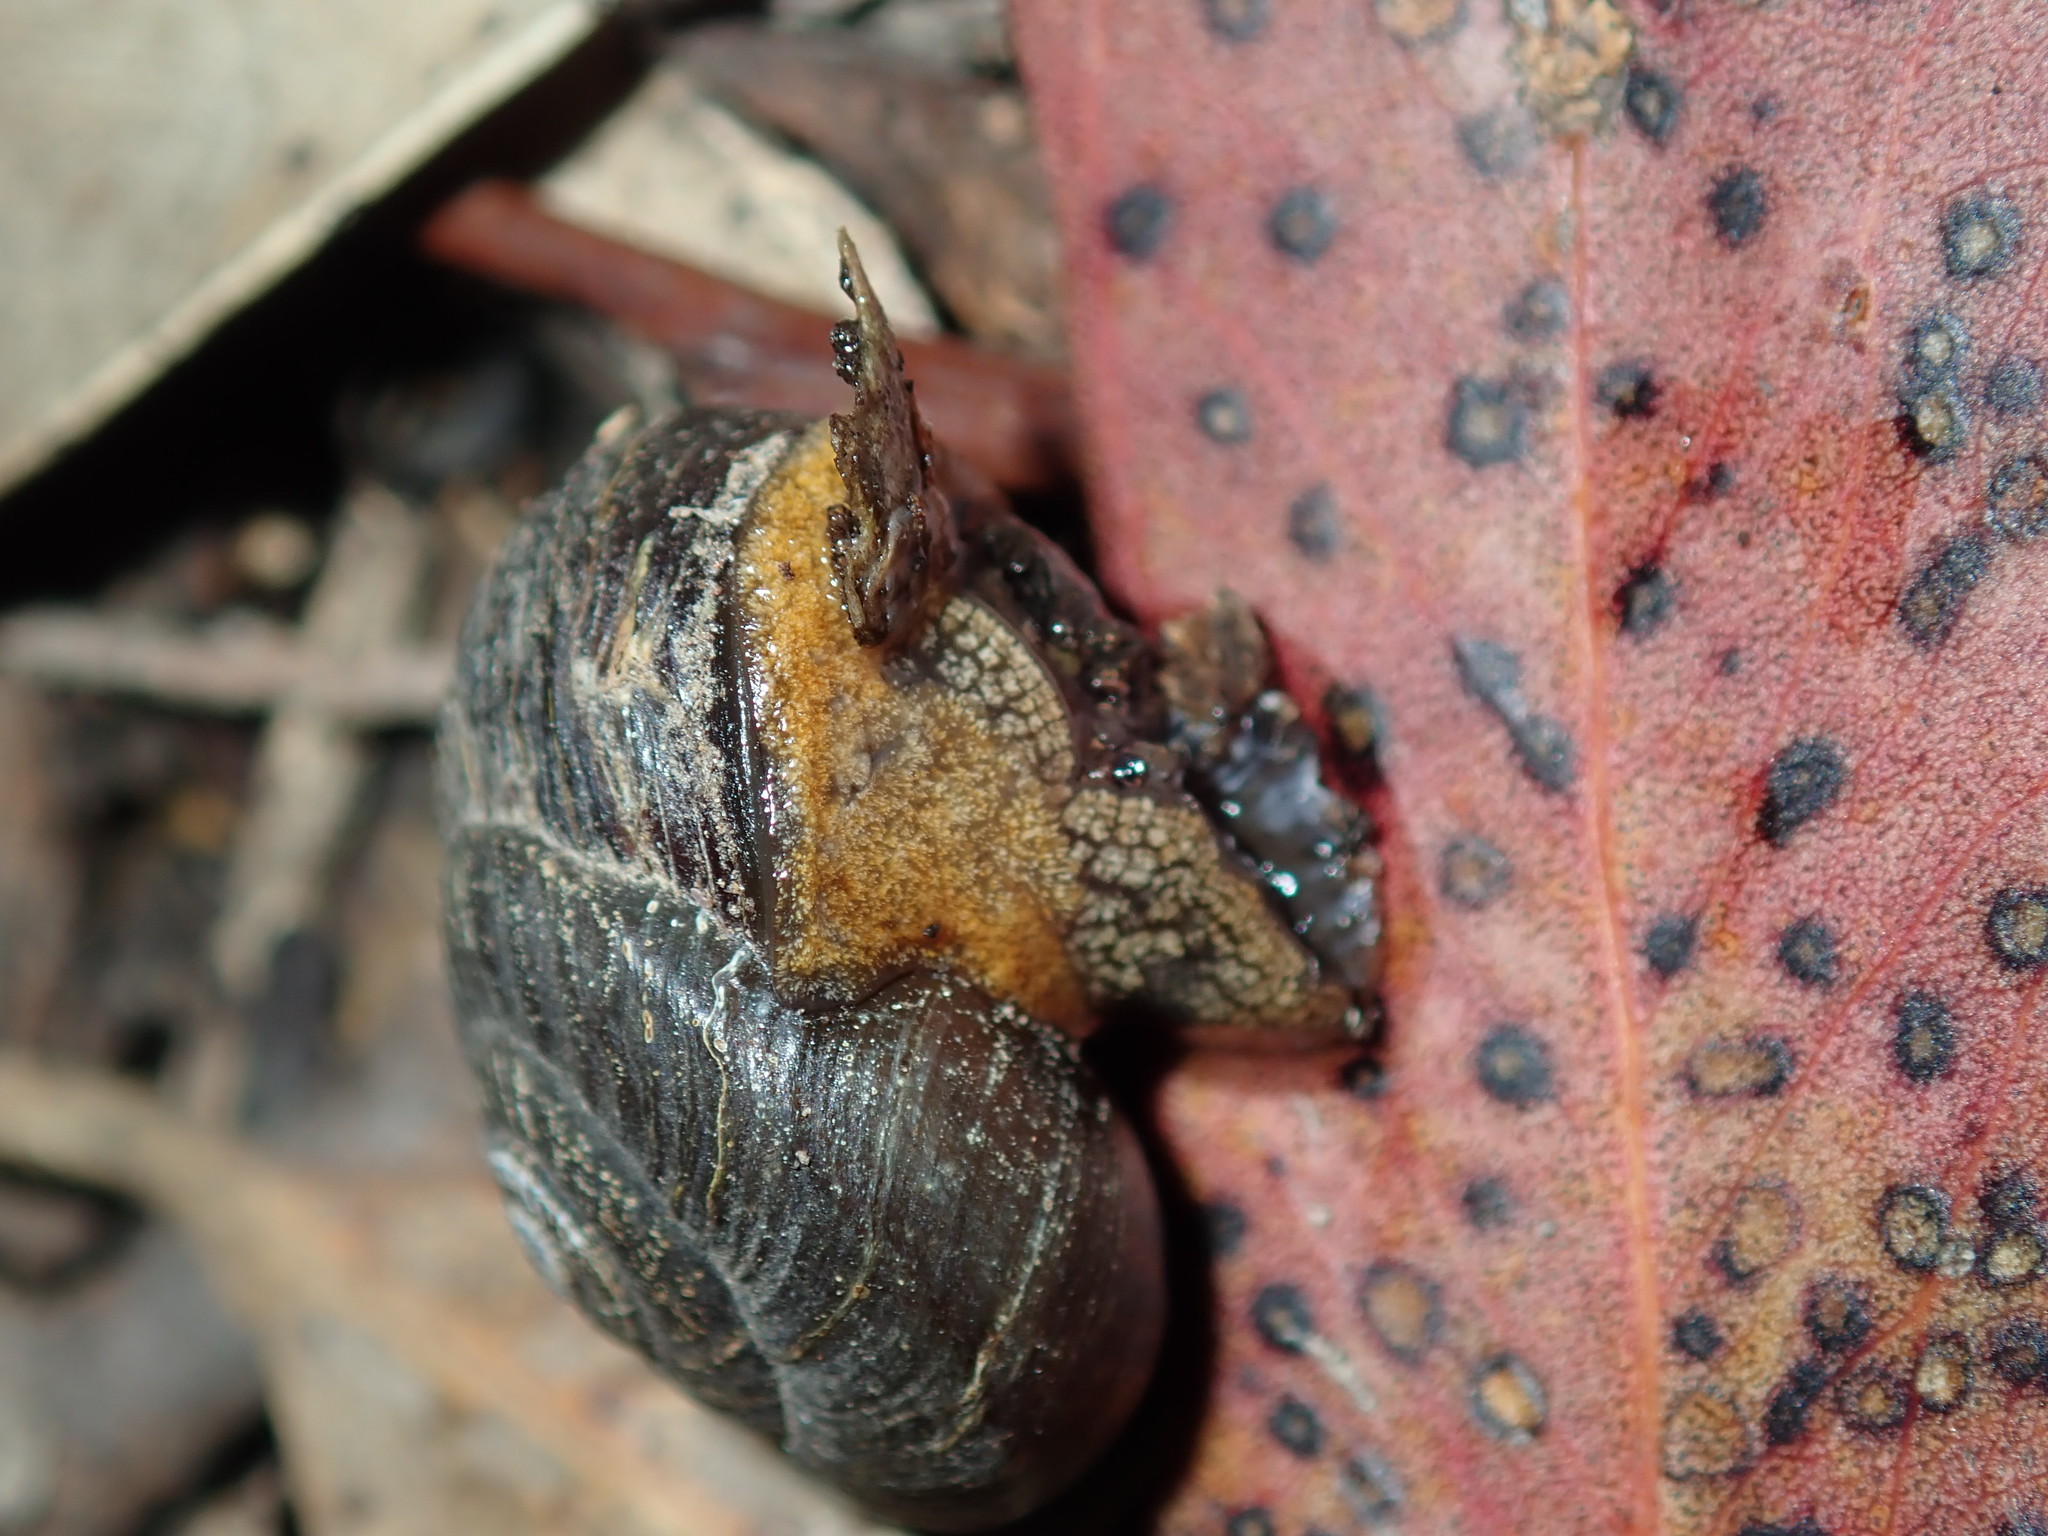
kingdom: Animalia
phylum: Mollusca
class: Gastropoda
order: Stylommatophora
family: Camaenidae
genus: Sauroconcha
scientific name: Sauroconcha sheai
